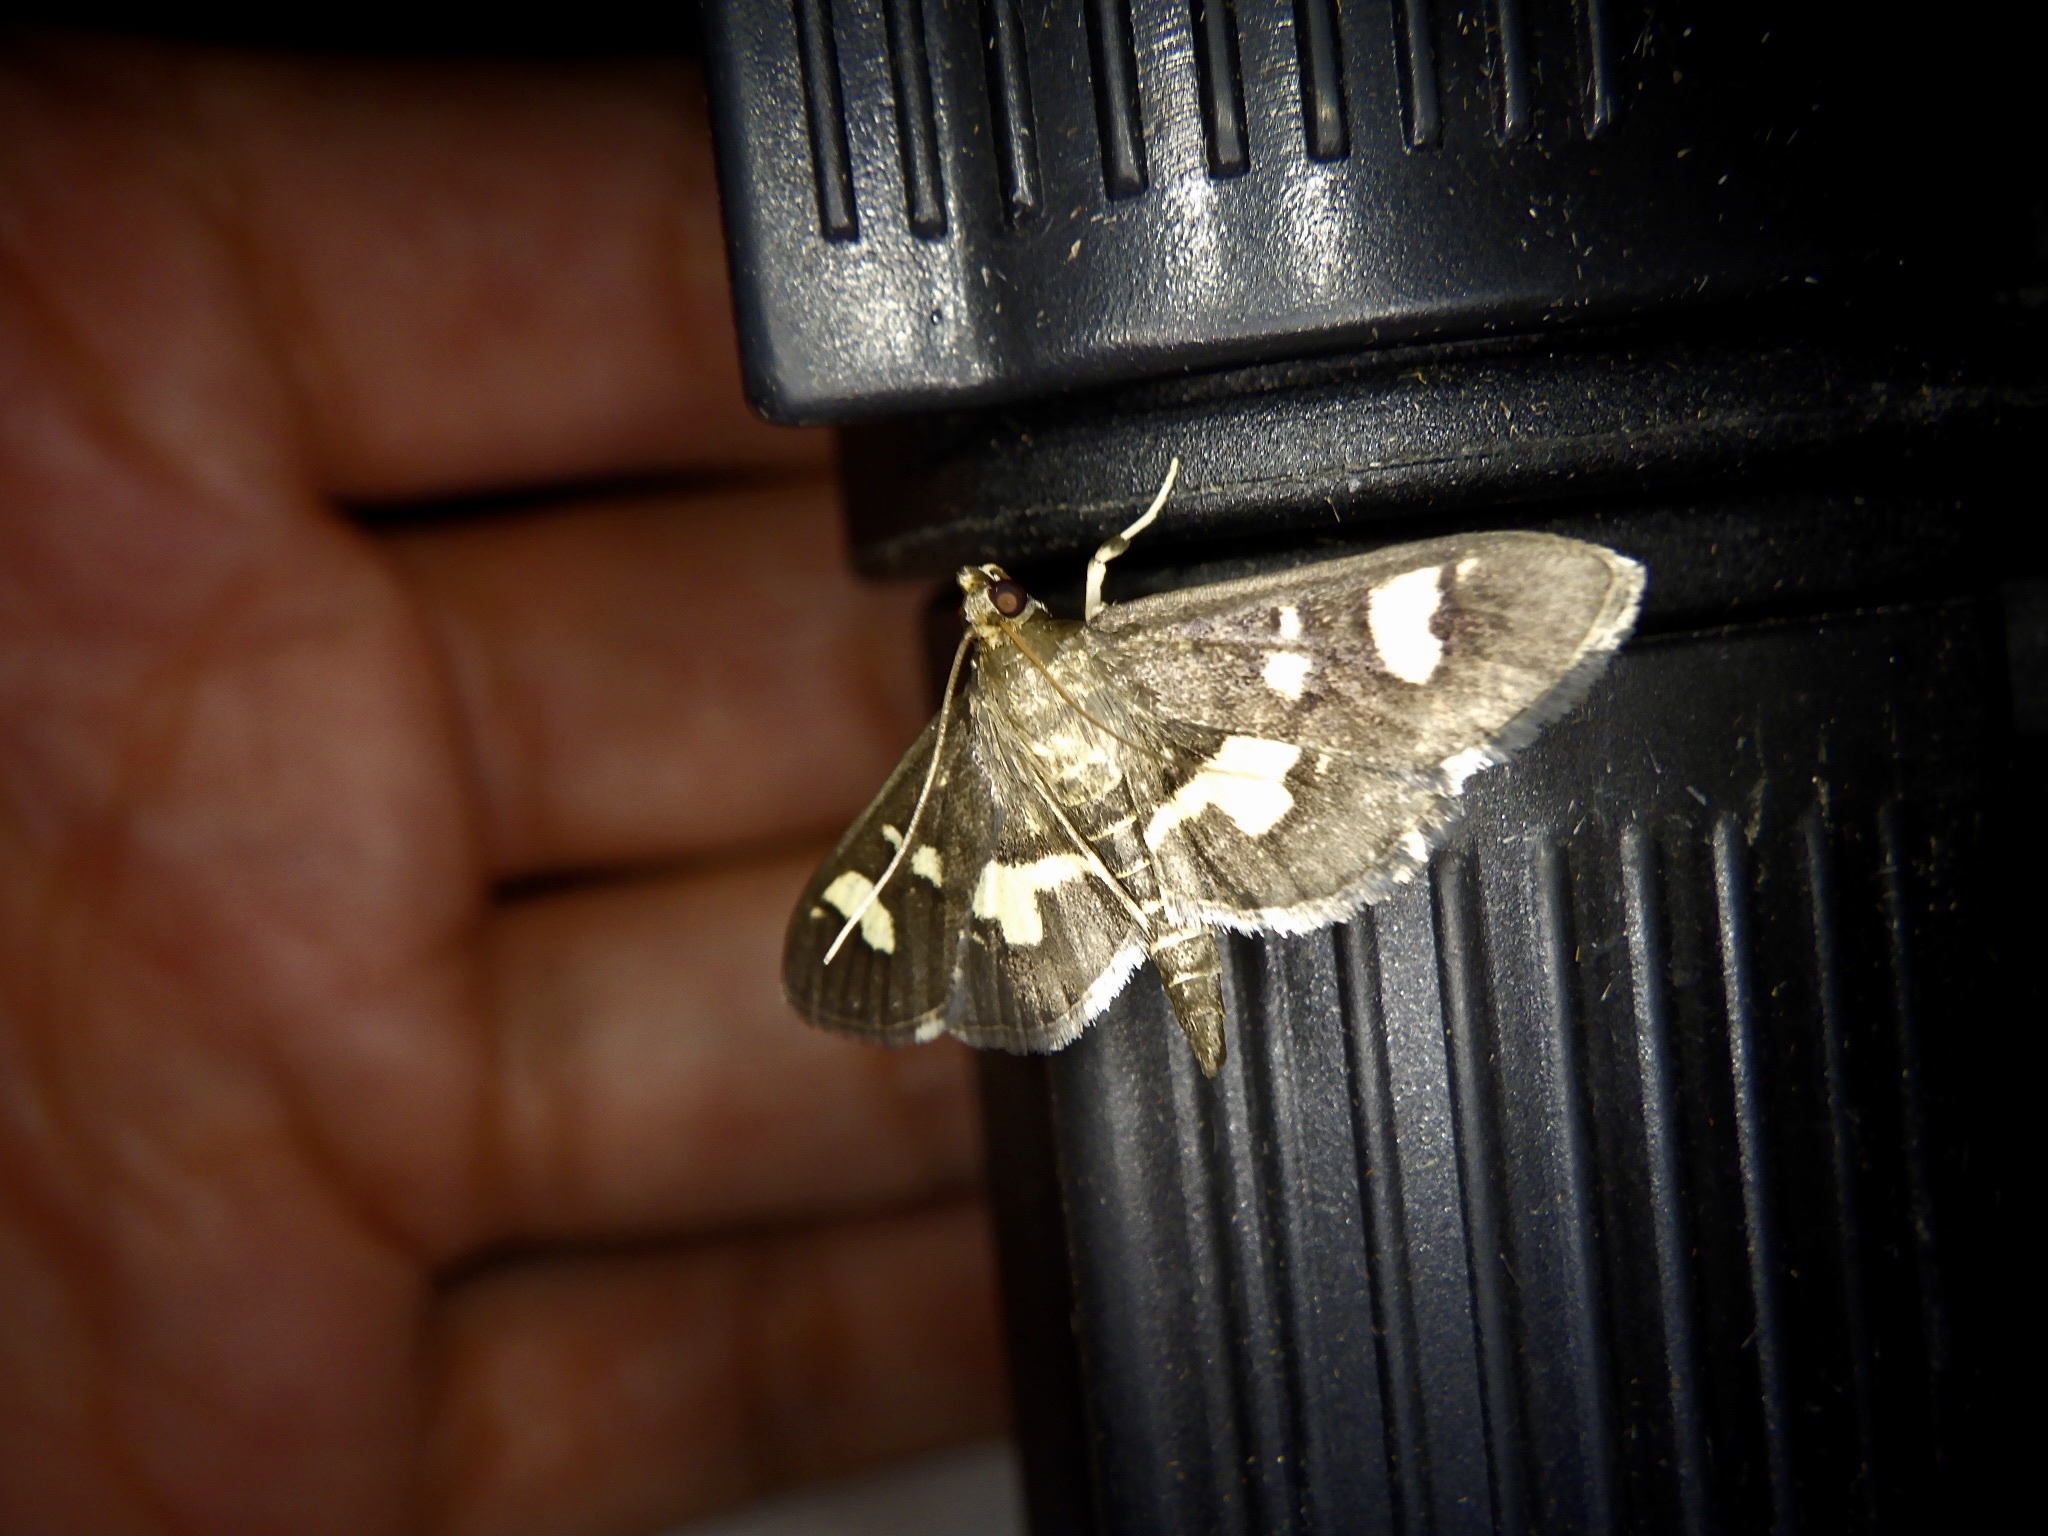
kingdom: Animalia
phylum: Arthropoda
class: Insecta
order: Lepidoptera
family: Crambidae
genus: Uresiphita
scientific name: Uresiphita tricolor
